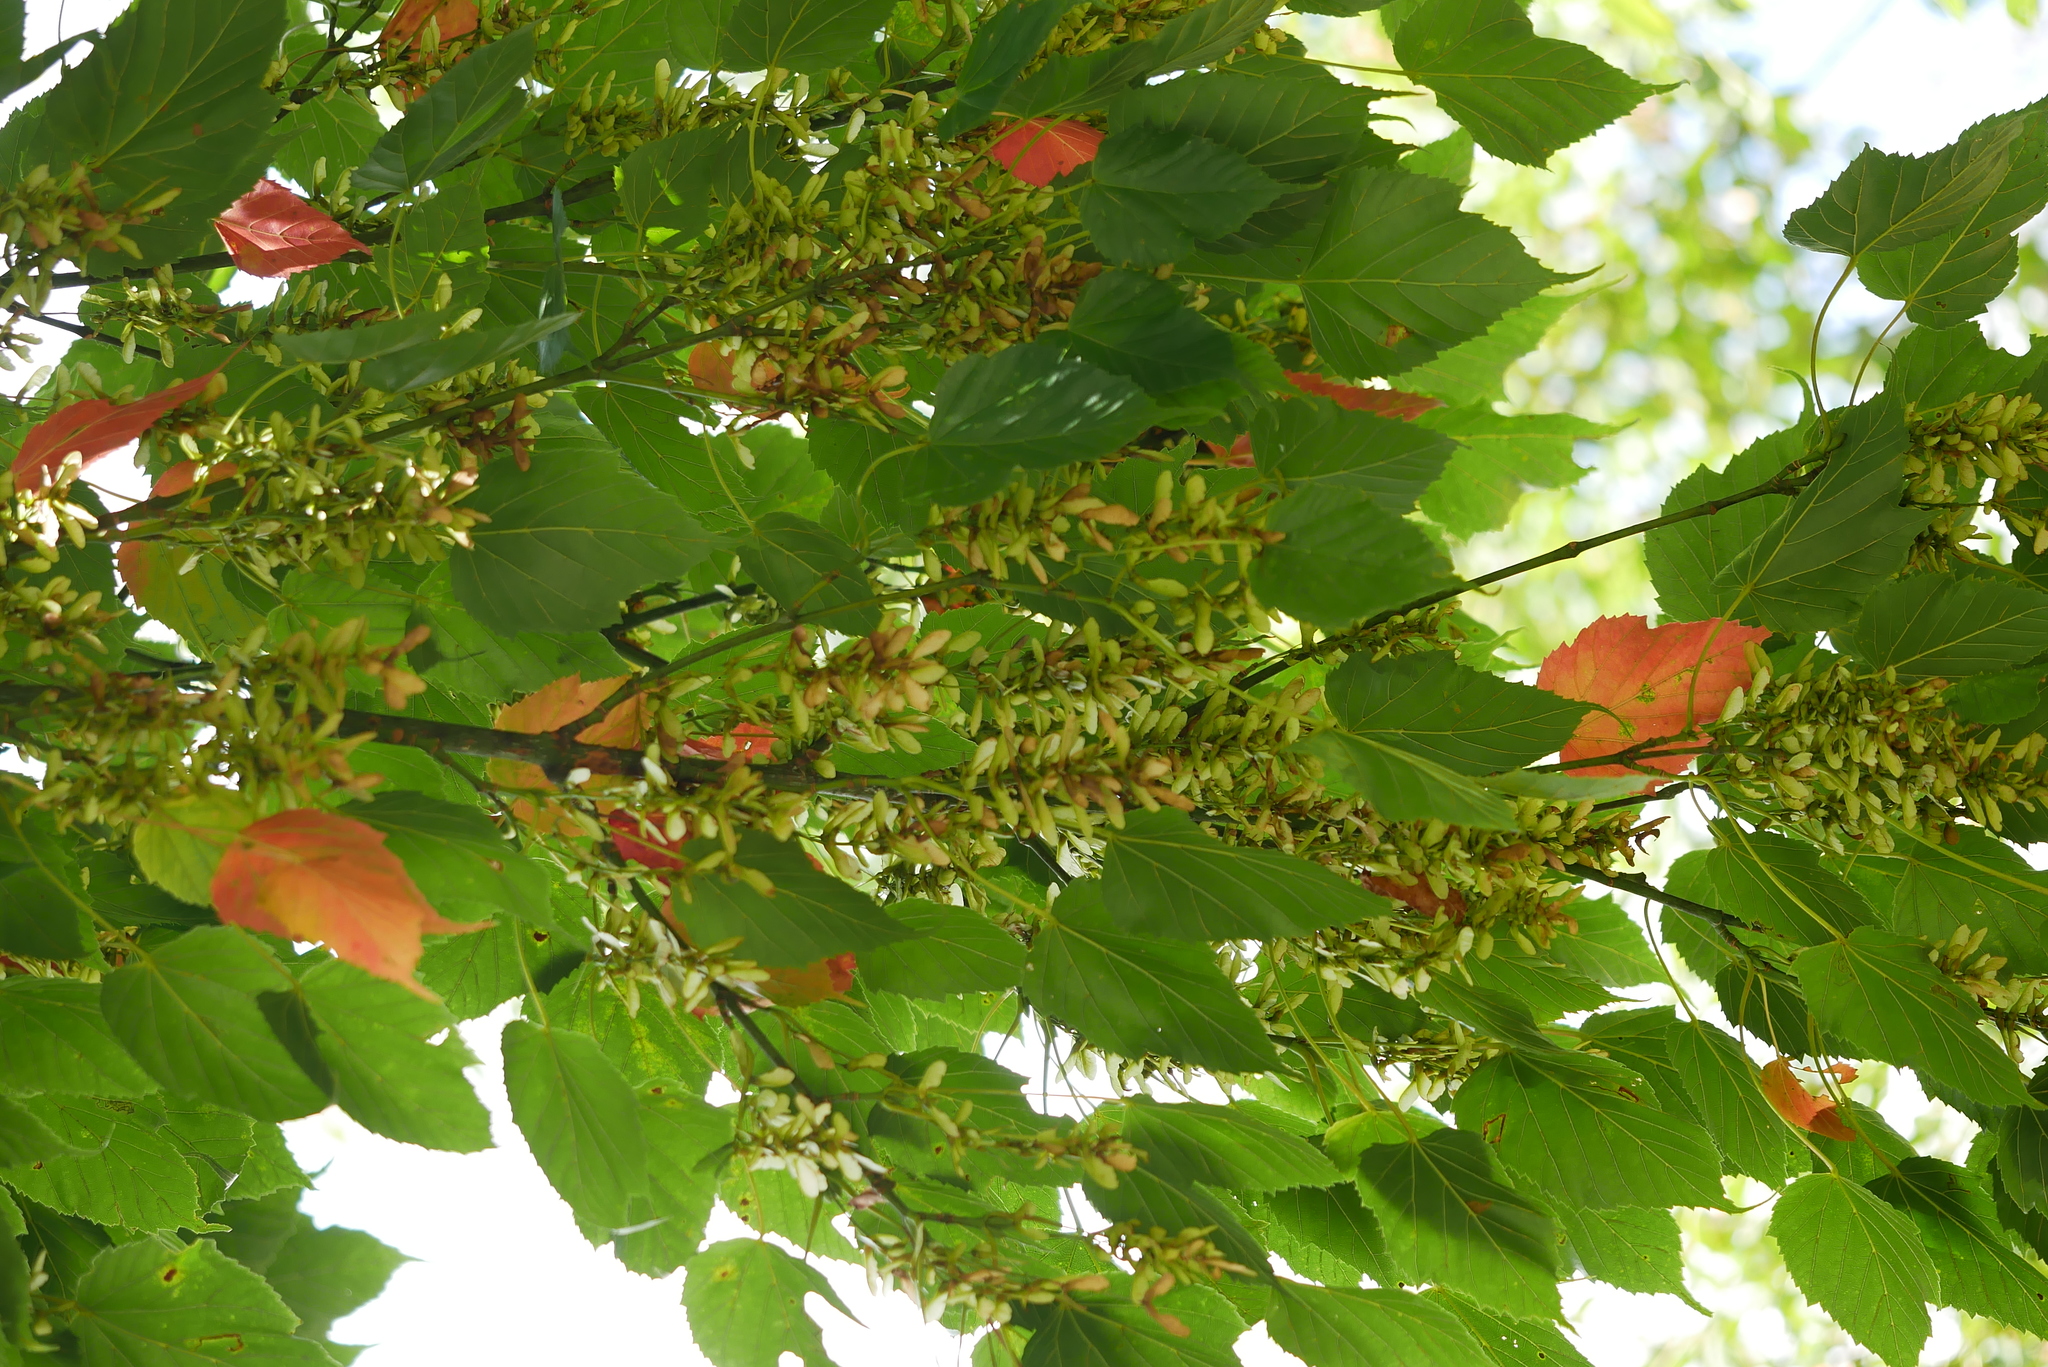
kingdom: Plantae
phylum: Tracheophyta
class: Magnoliopsida
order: Sapindales
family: Sapindaceae
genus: Acer
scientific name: Acer caudatifolium
